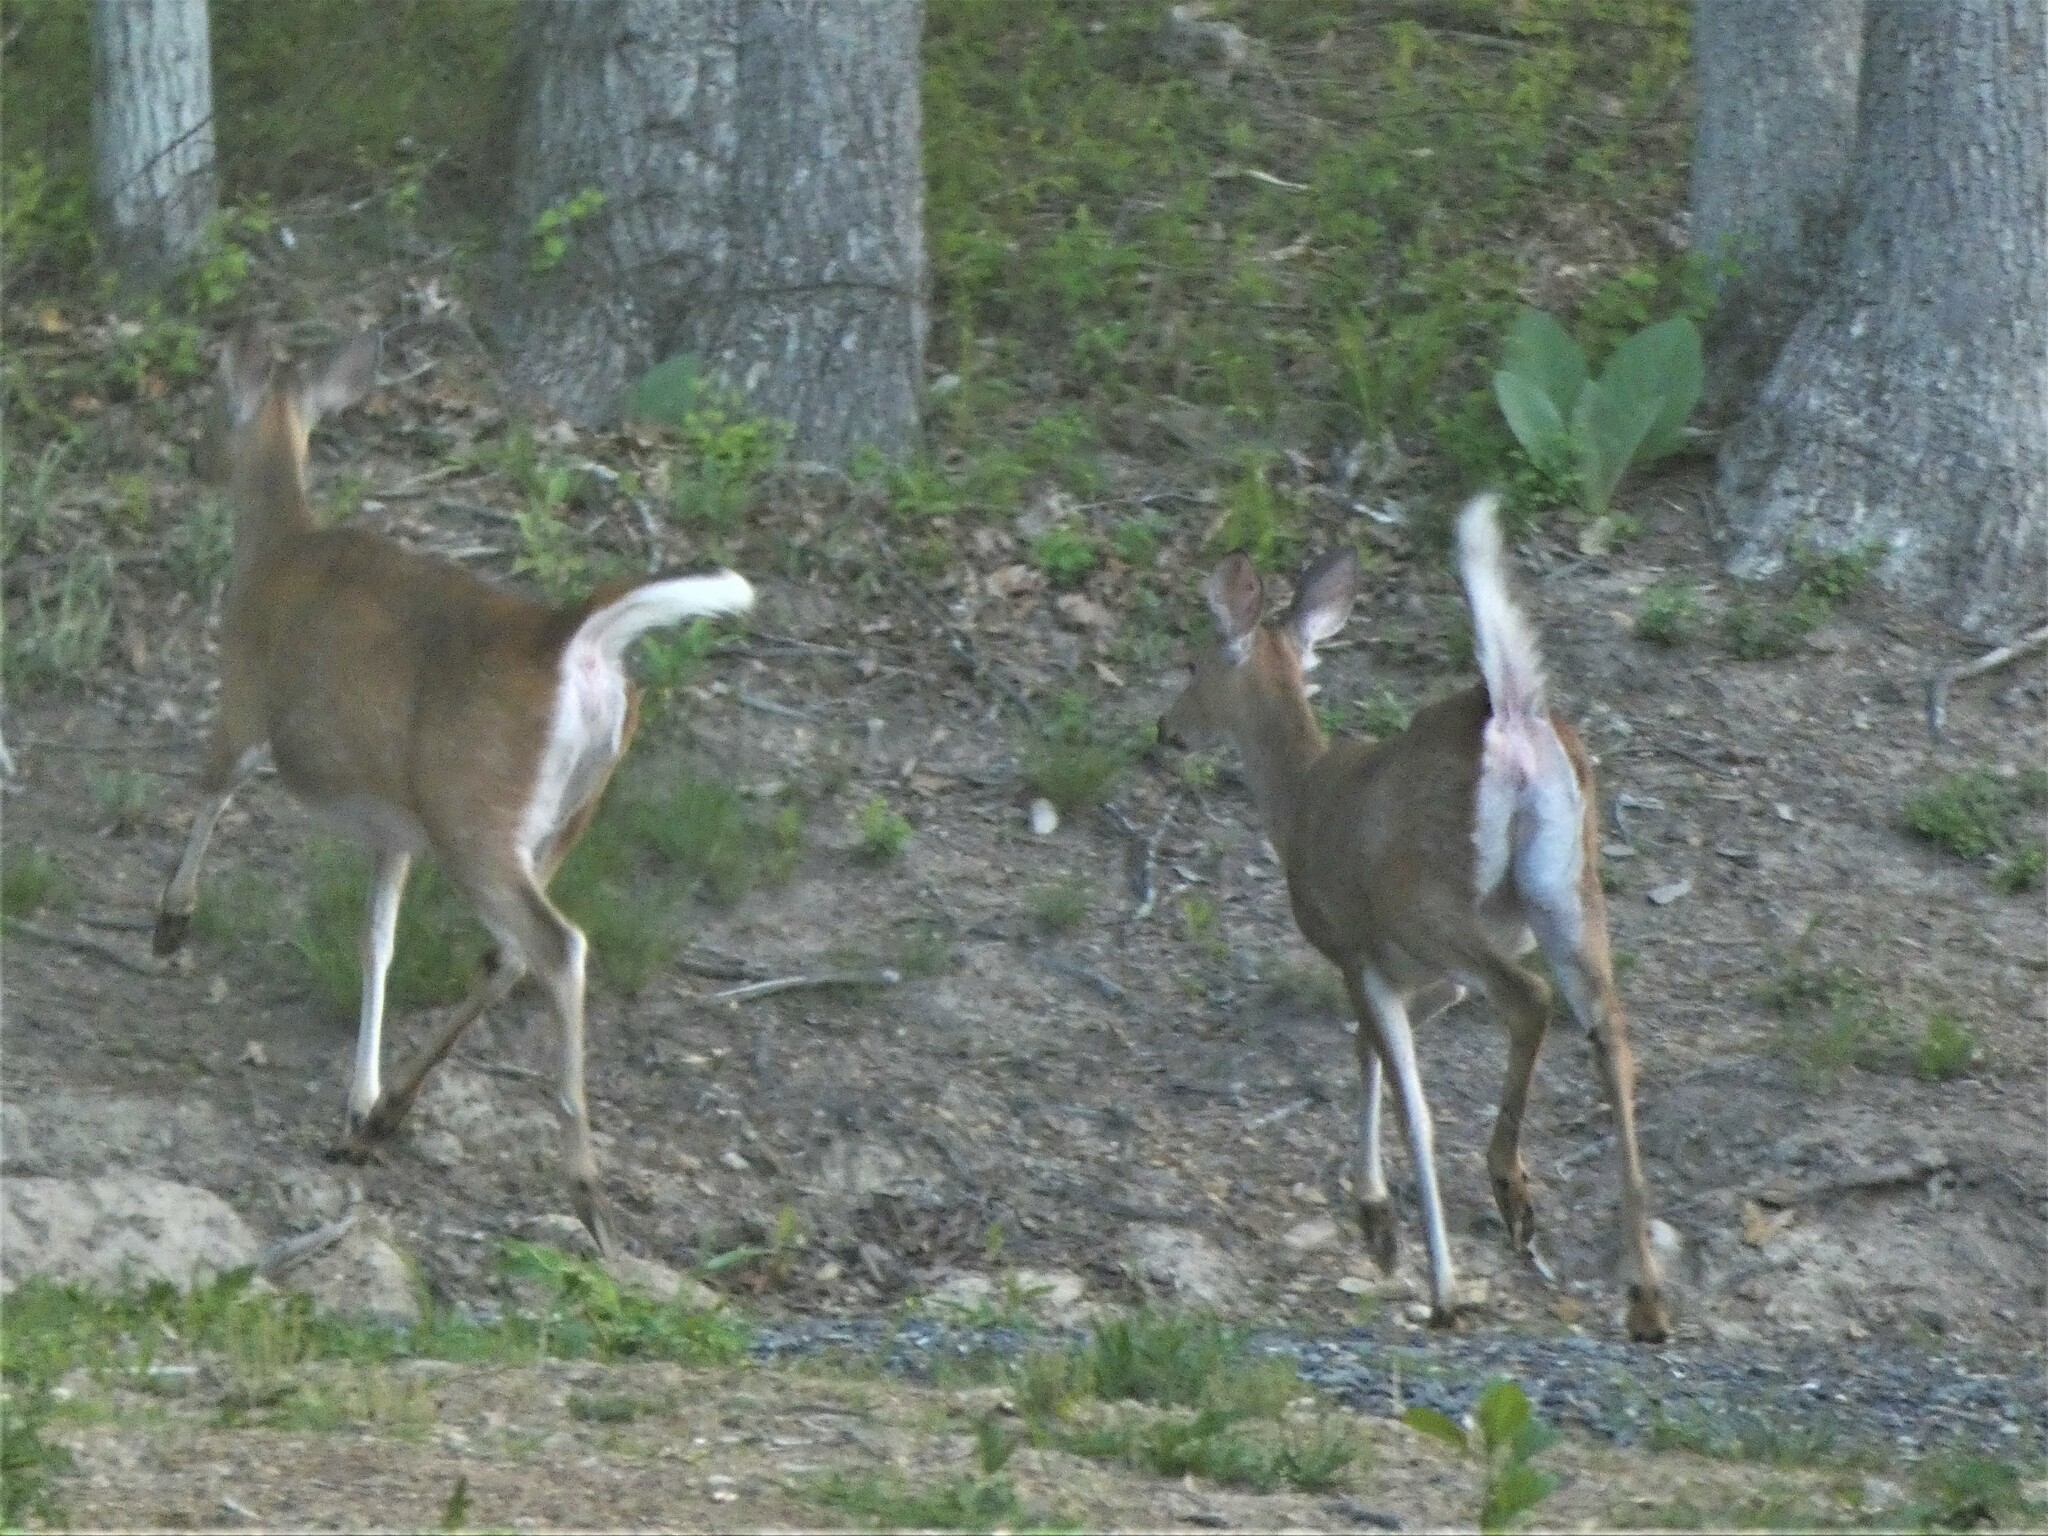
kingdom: Animalia
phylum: Chordata
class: Mammalia
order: Artiodactyla
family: Cervidae
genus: Odocoileus
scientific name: Odocoileus virginianus
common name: White-tailed deer
